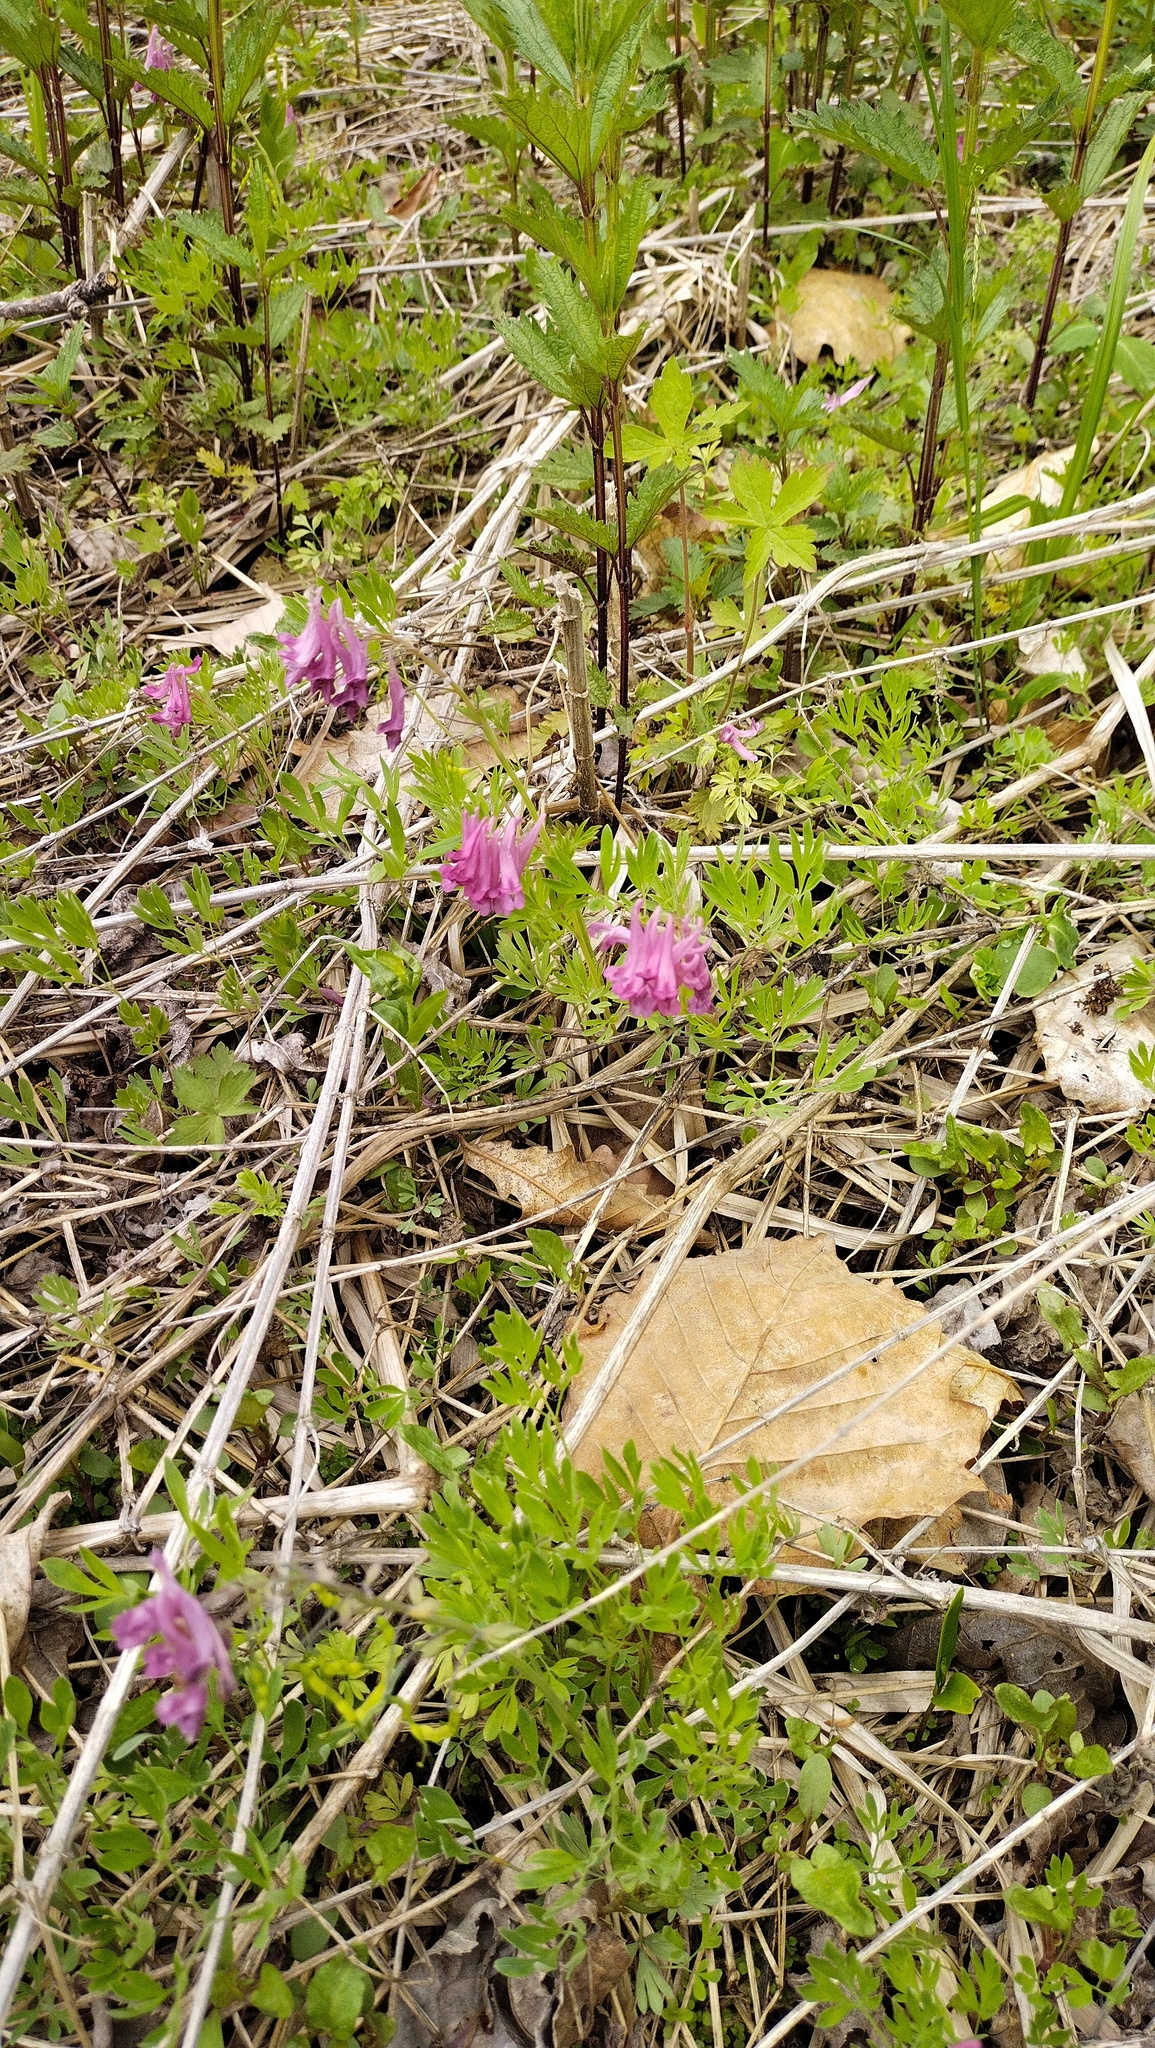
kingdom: Plantae
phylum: Tracheophyta
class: Magnoliopsida
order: Ranunculales
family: Papaveraceae
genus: Corydalis
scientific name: Corydalis buschii
